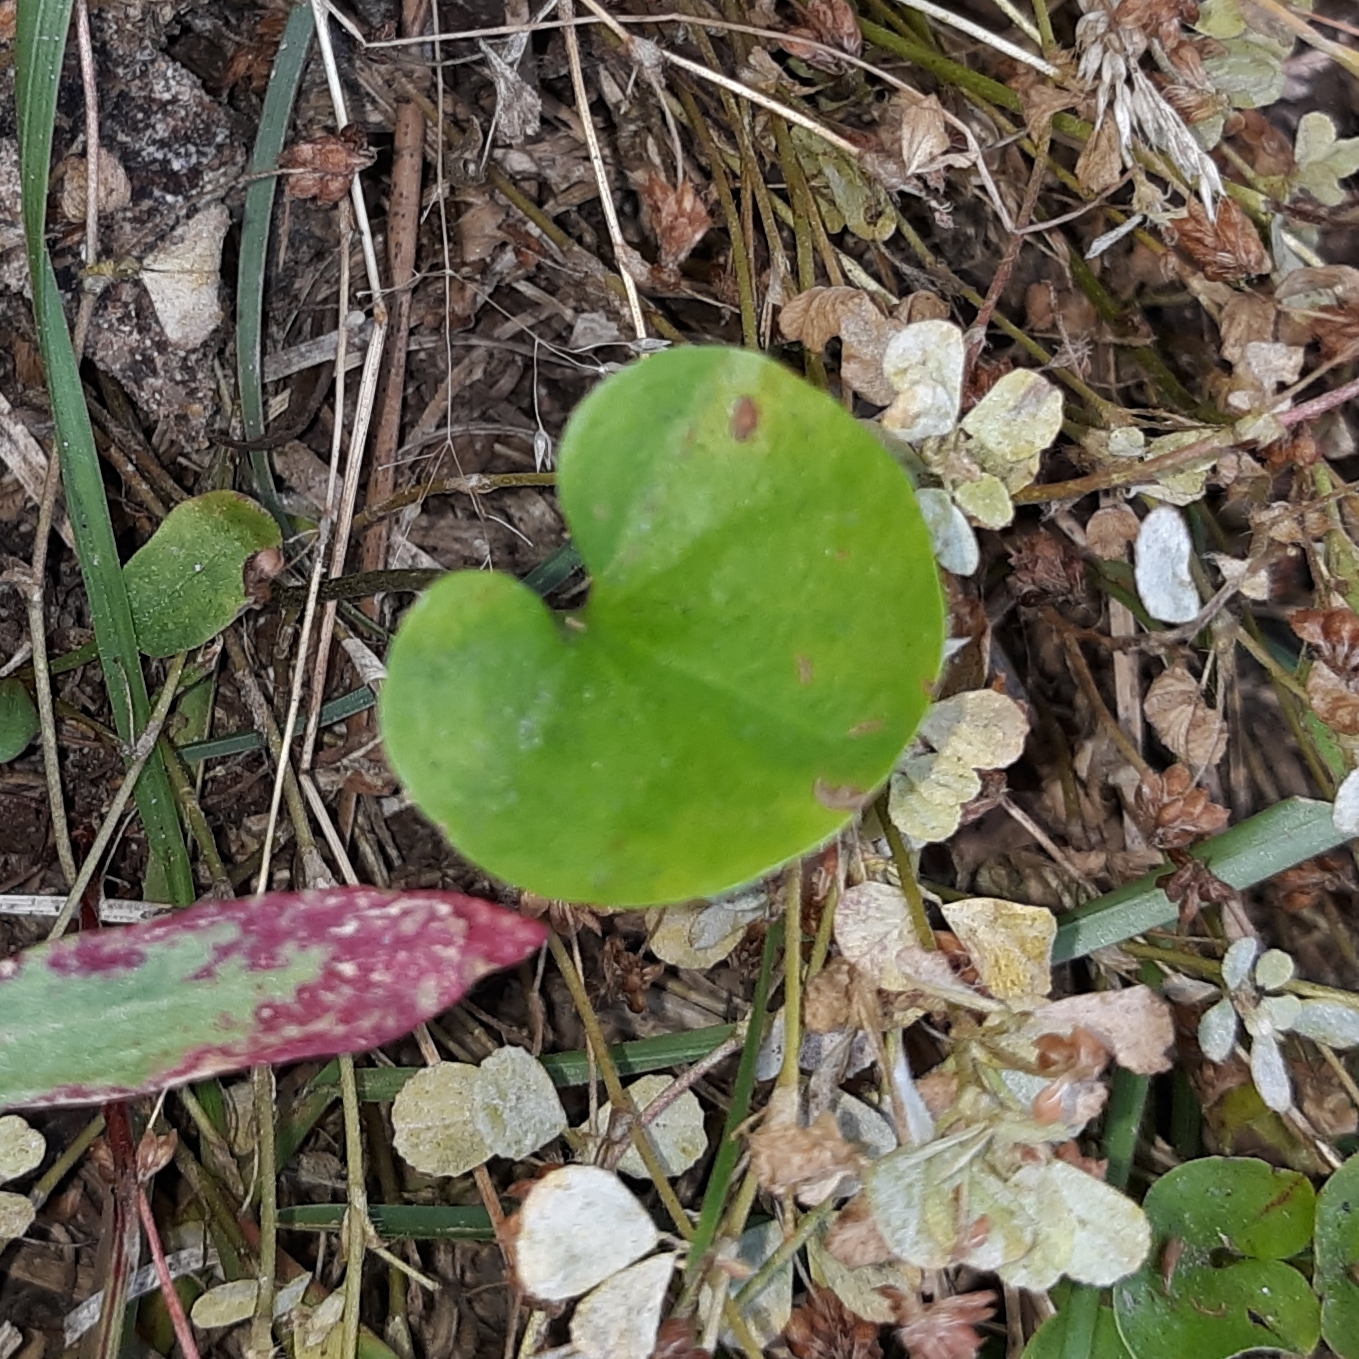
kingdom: Plantae
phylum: Tracheophyta
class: Magnoliopsida
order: Solanales
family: Convolvulaceae
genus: Dichondra
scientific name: Dichondra carolinensis
